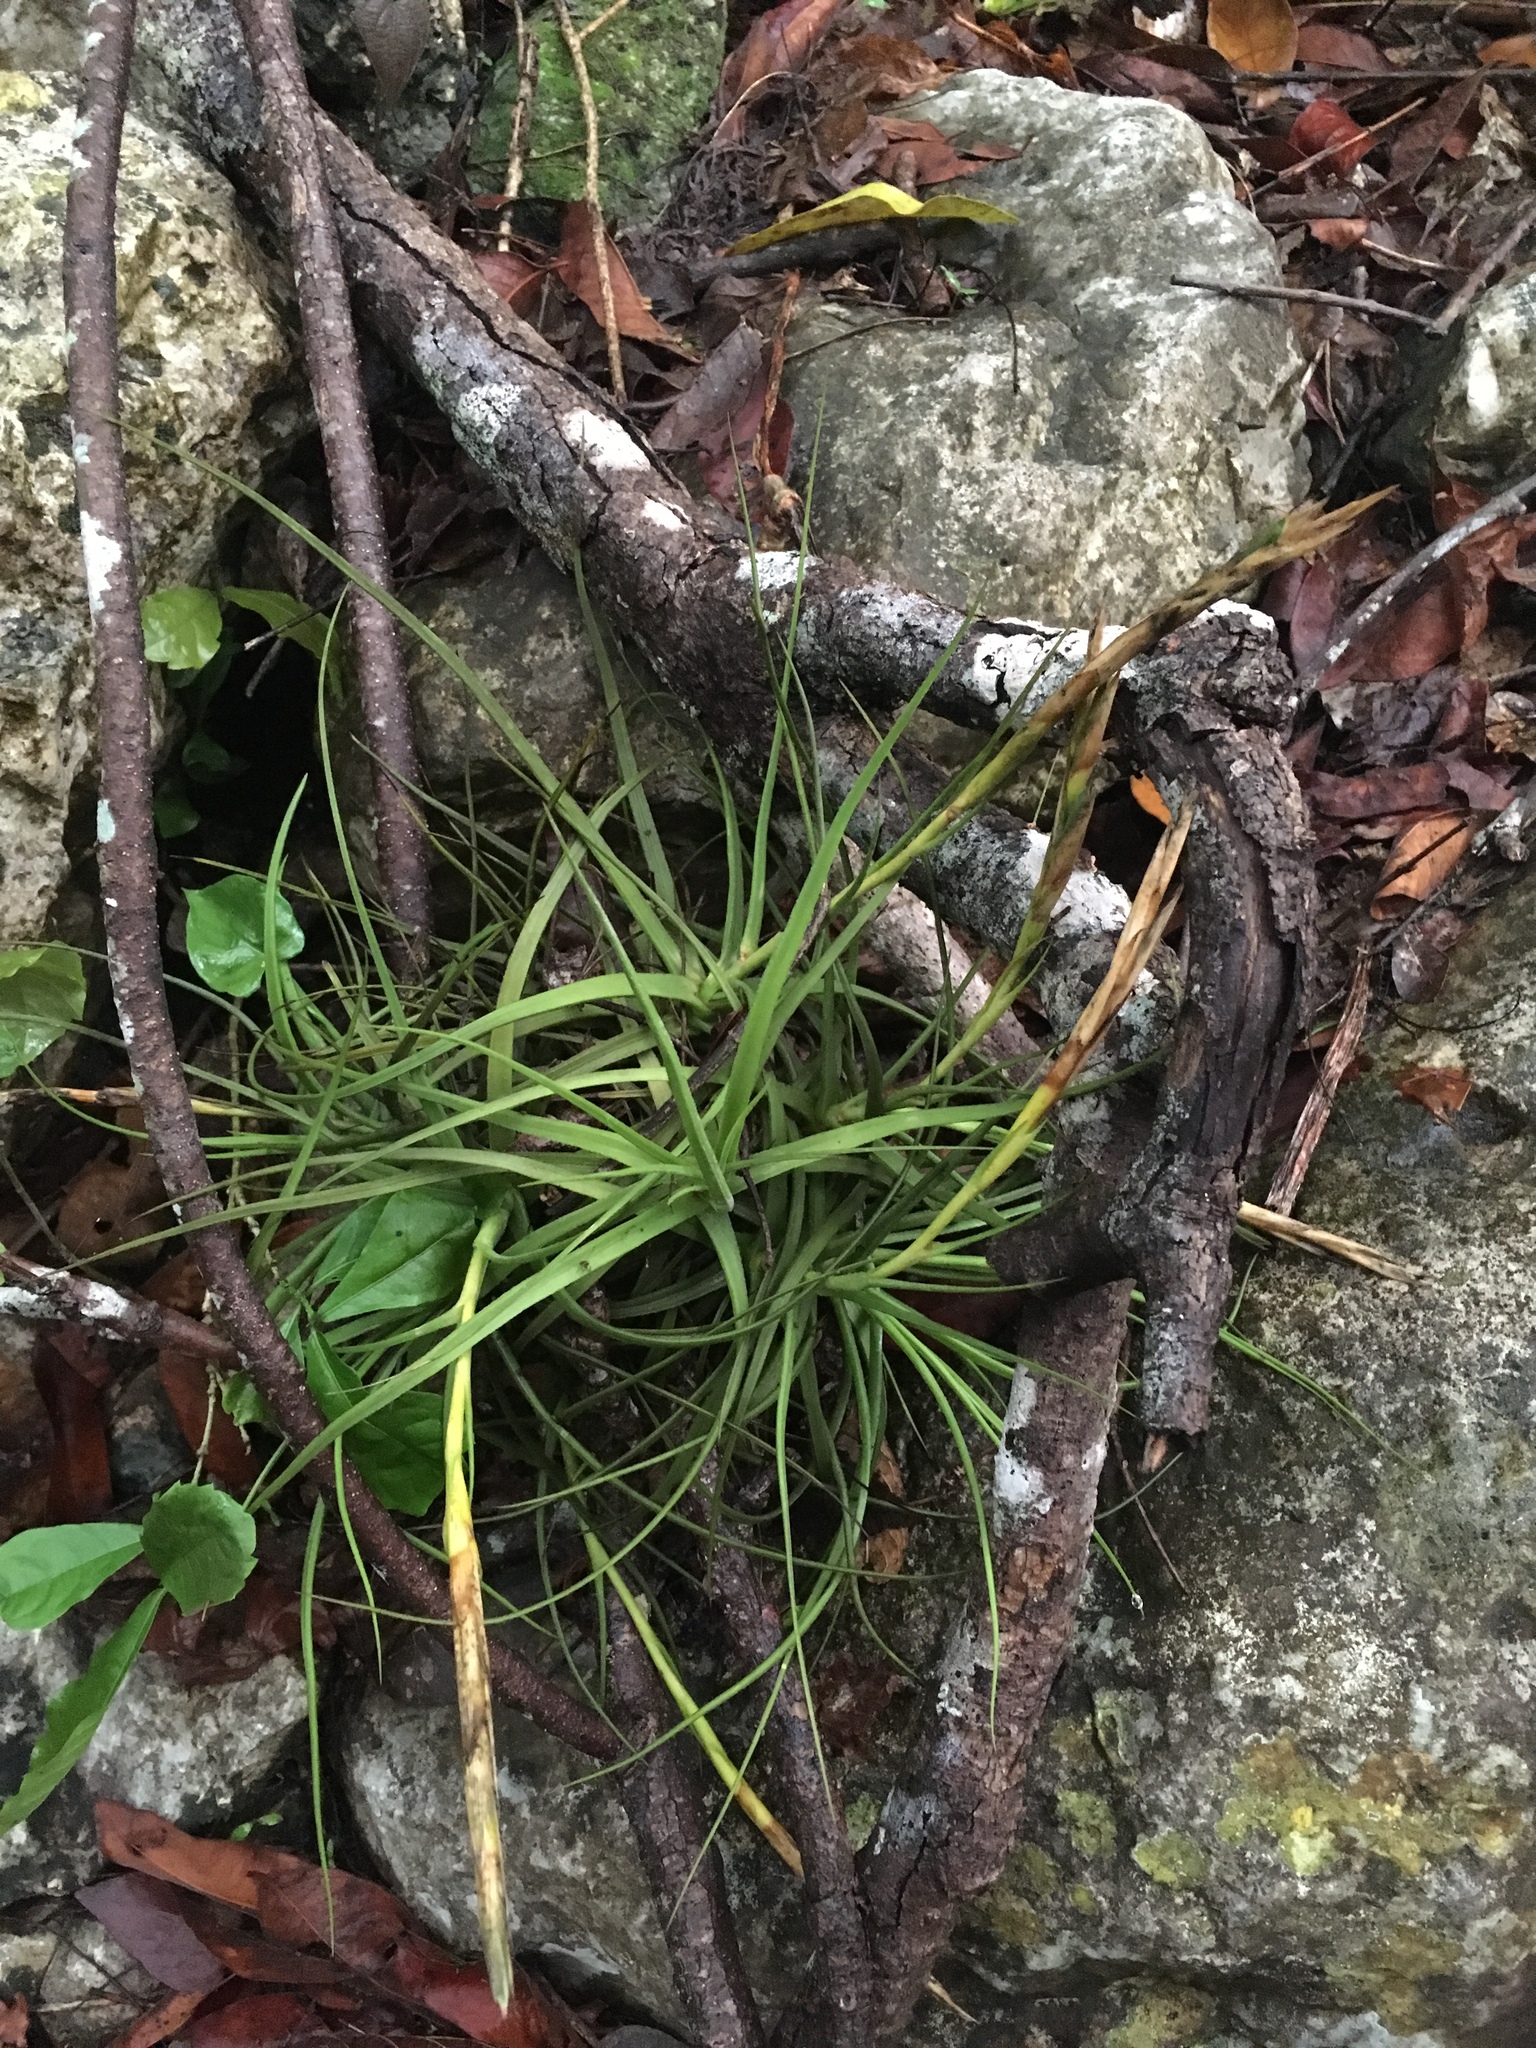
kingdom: Plantae
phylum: Tracheophyta
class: Liliopsida
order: Poales
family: Bromeliaceae
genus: Tillandsia
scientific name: Tillandsia schiedeana
